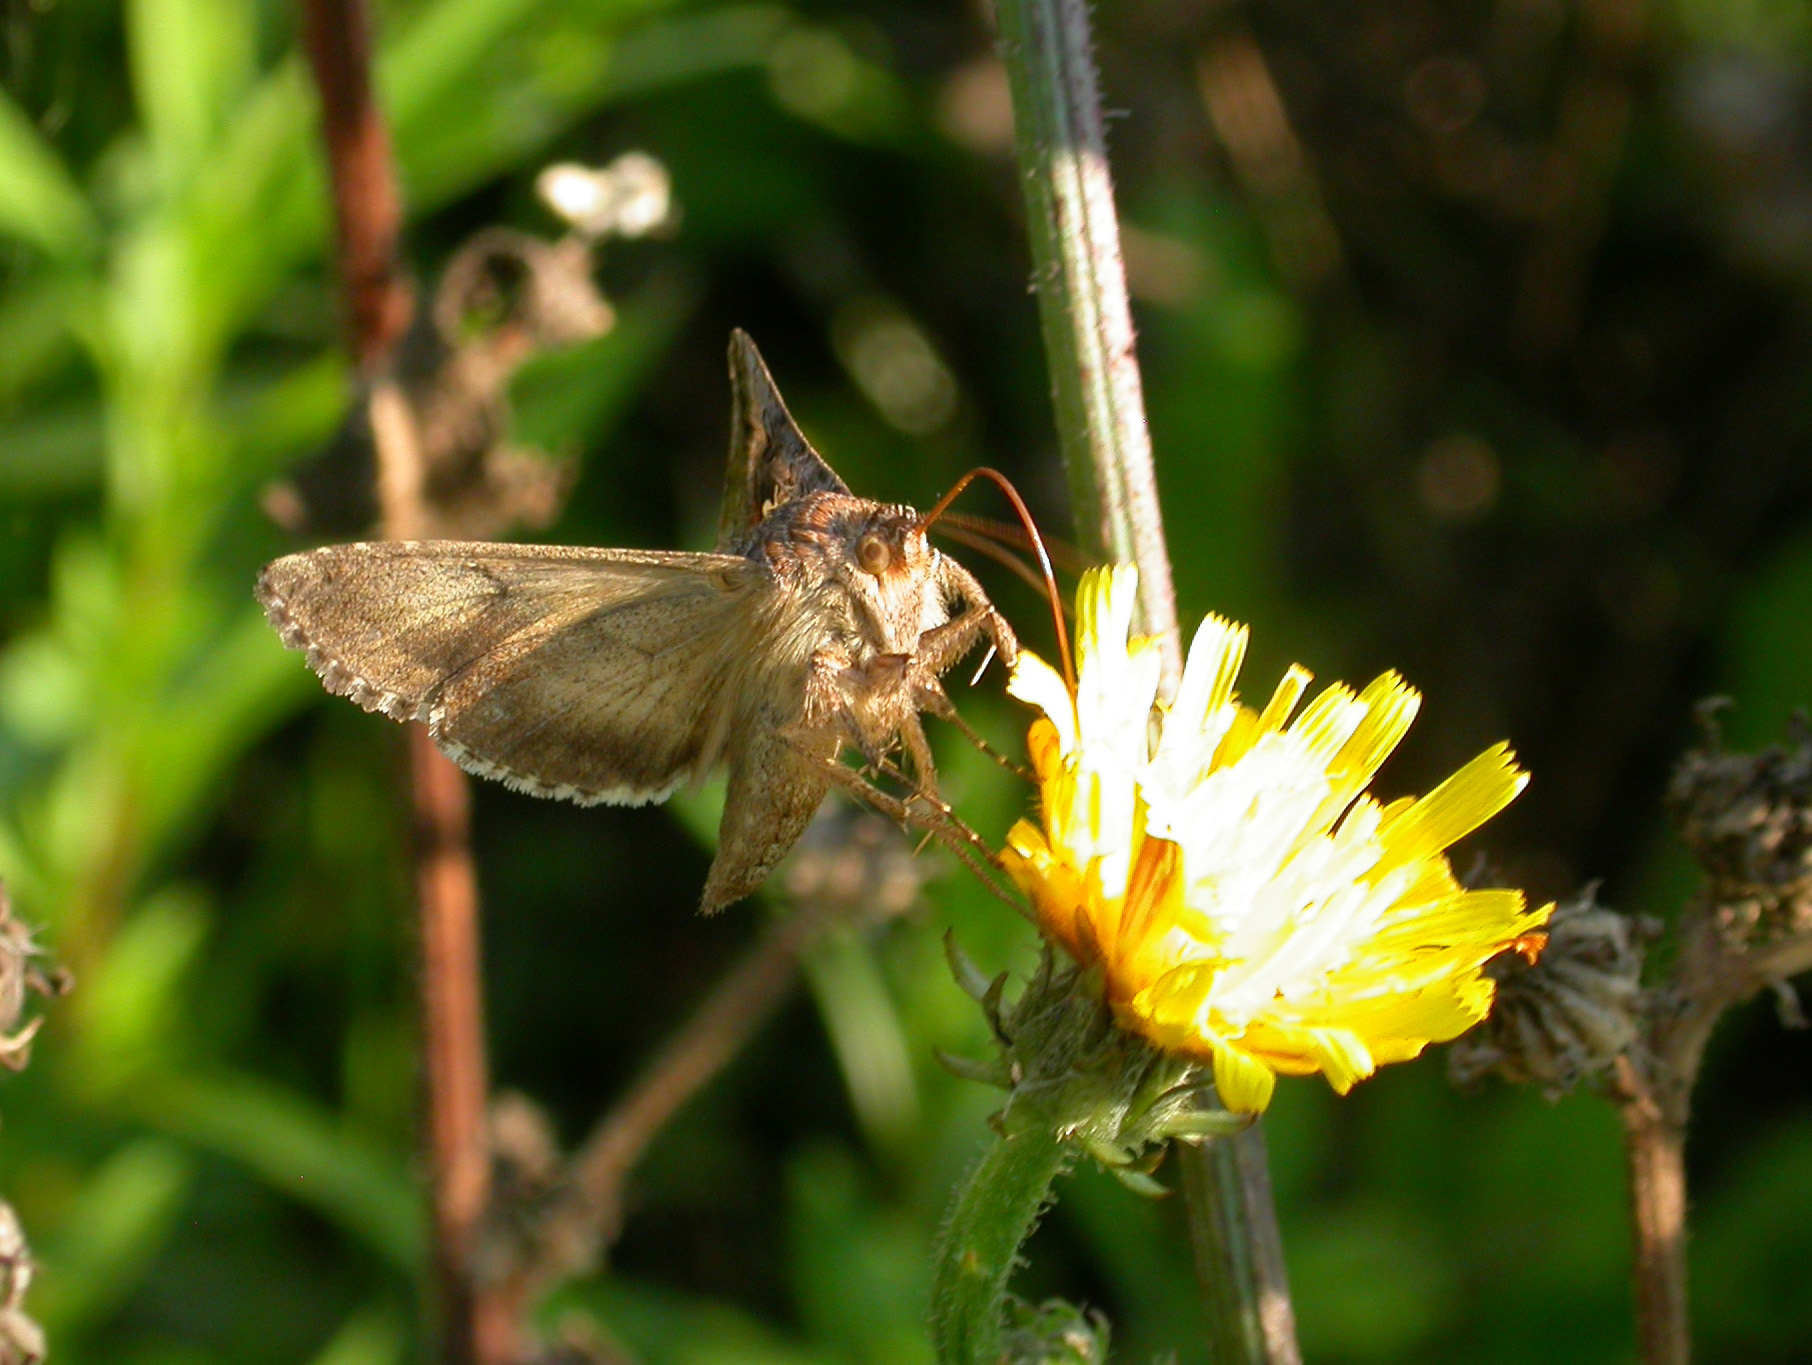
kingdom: Animalia
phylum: Arthropoda
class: Insecta
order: Lepidoptera
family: Noctuidae
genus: Autographa
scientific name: Autographa gamma
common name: Silver y
